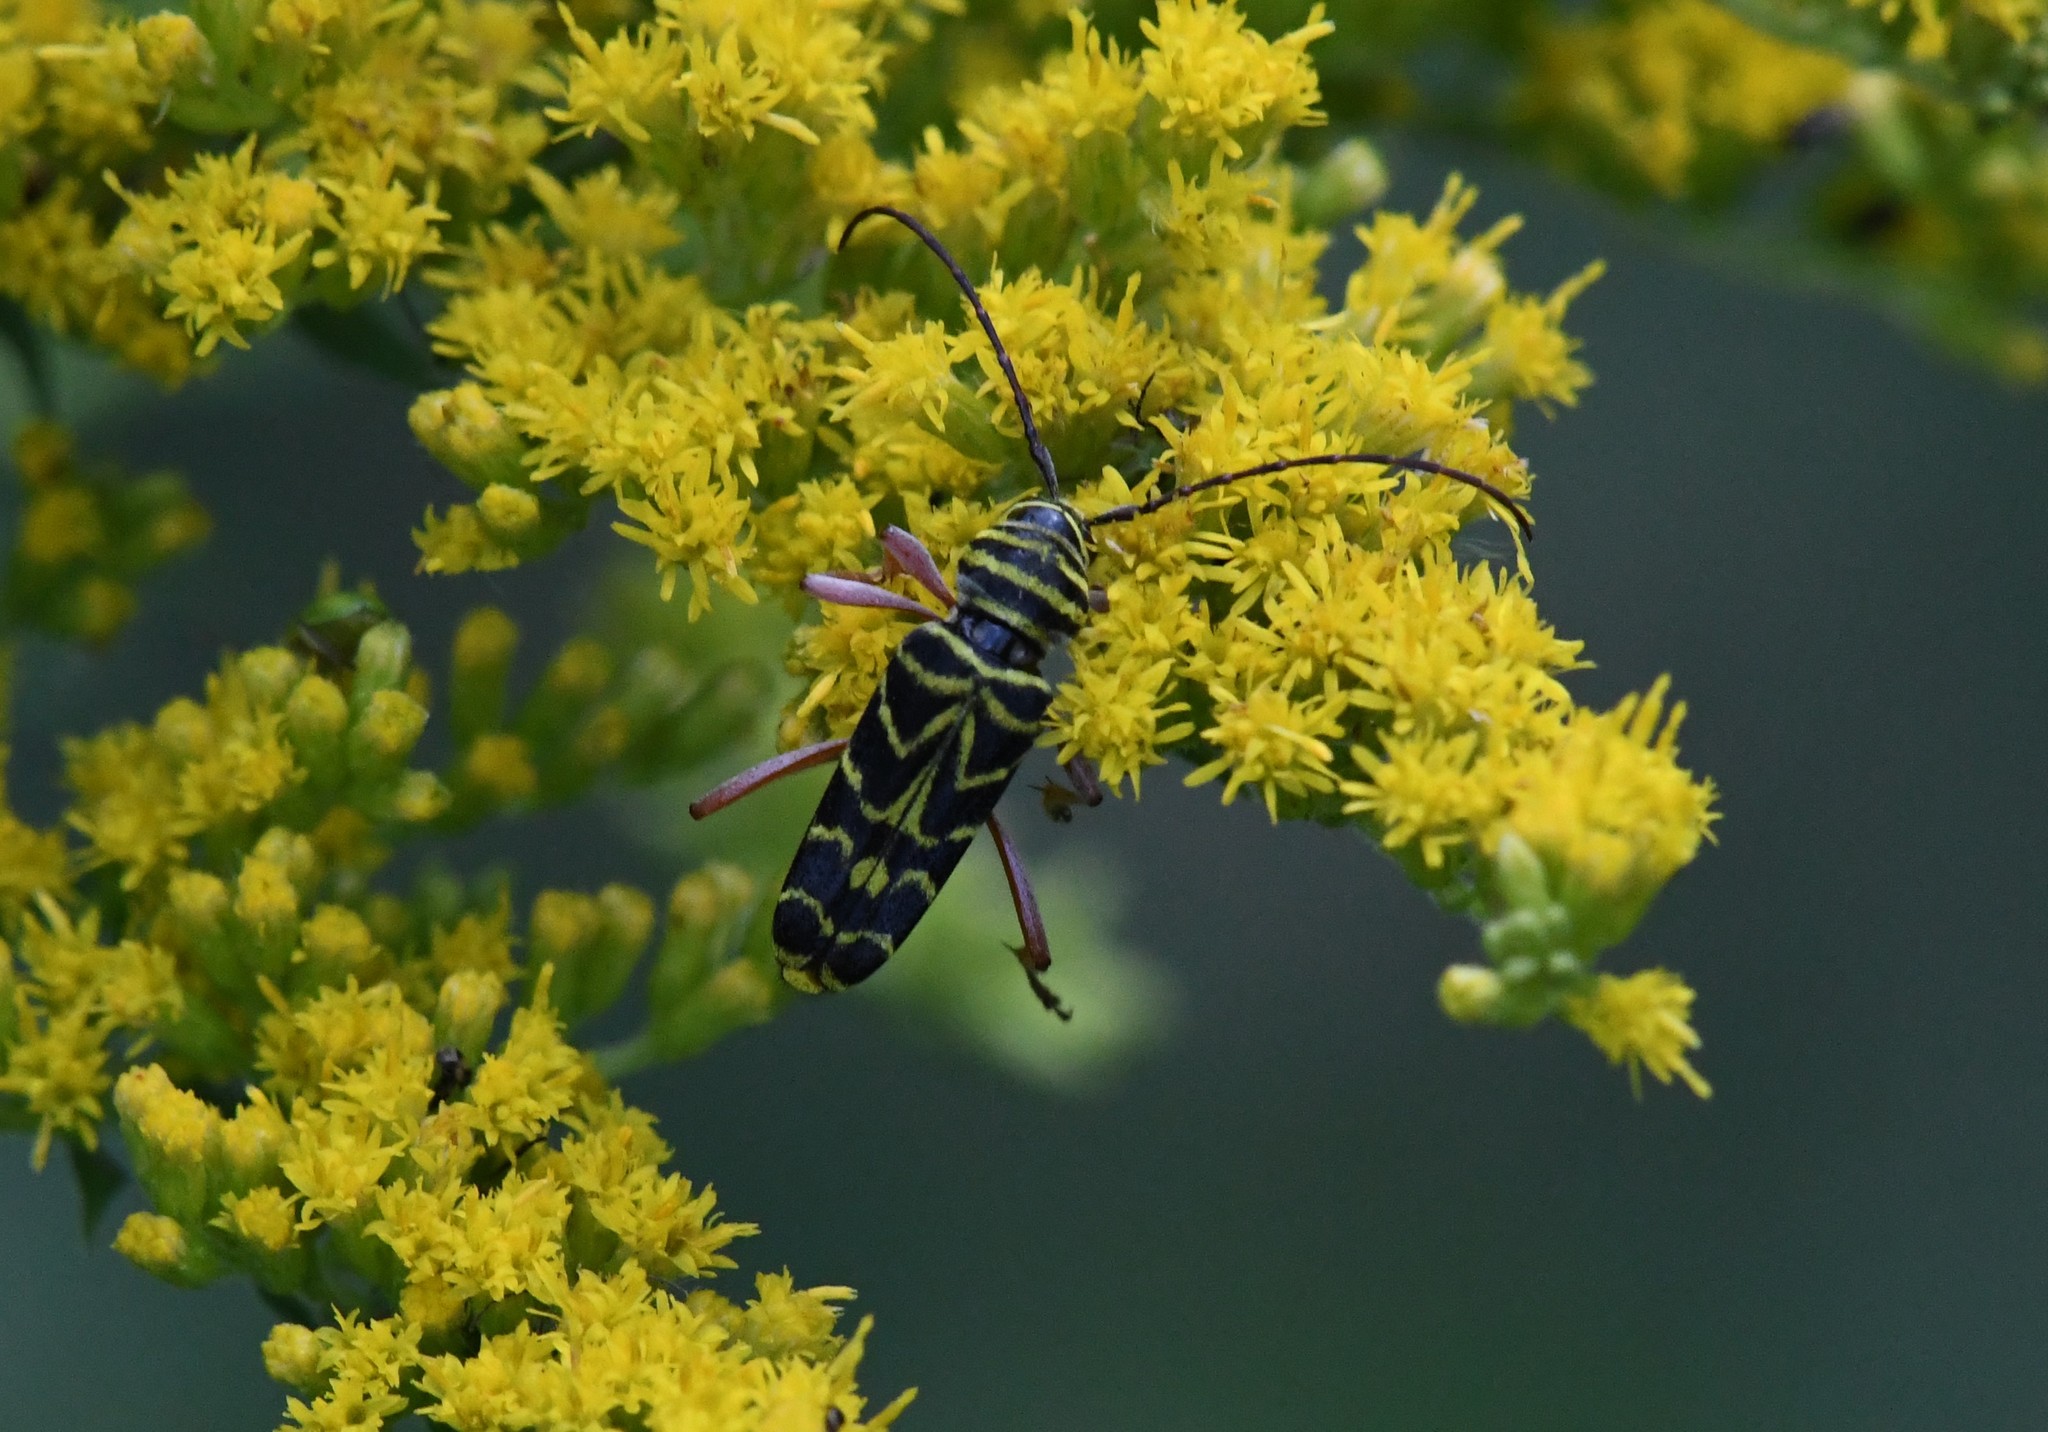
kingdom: Animalia
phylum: Arthropoda
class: Insecta
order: Coleoptera
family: Cerambycidae
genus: Megacyllene
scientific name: Megacyllene robiniae
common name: Locust borer
